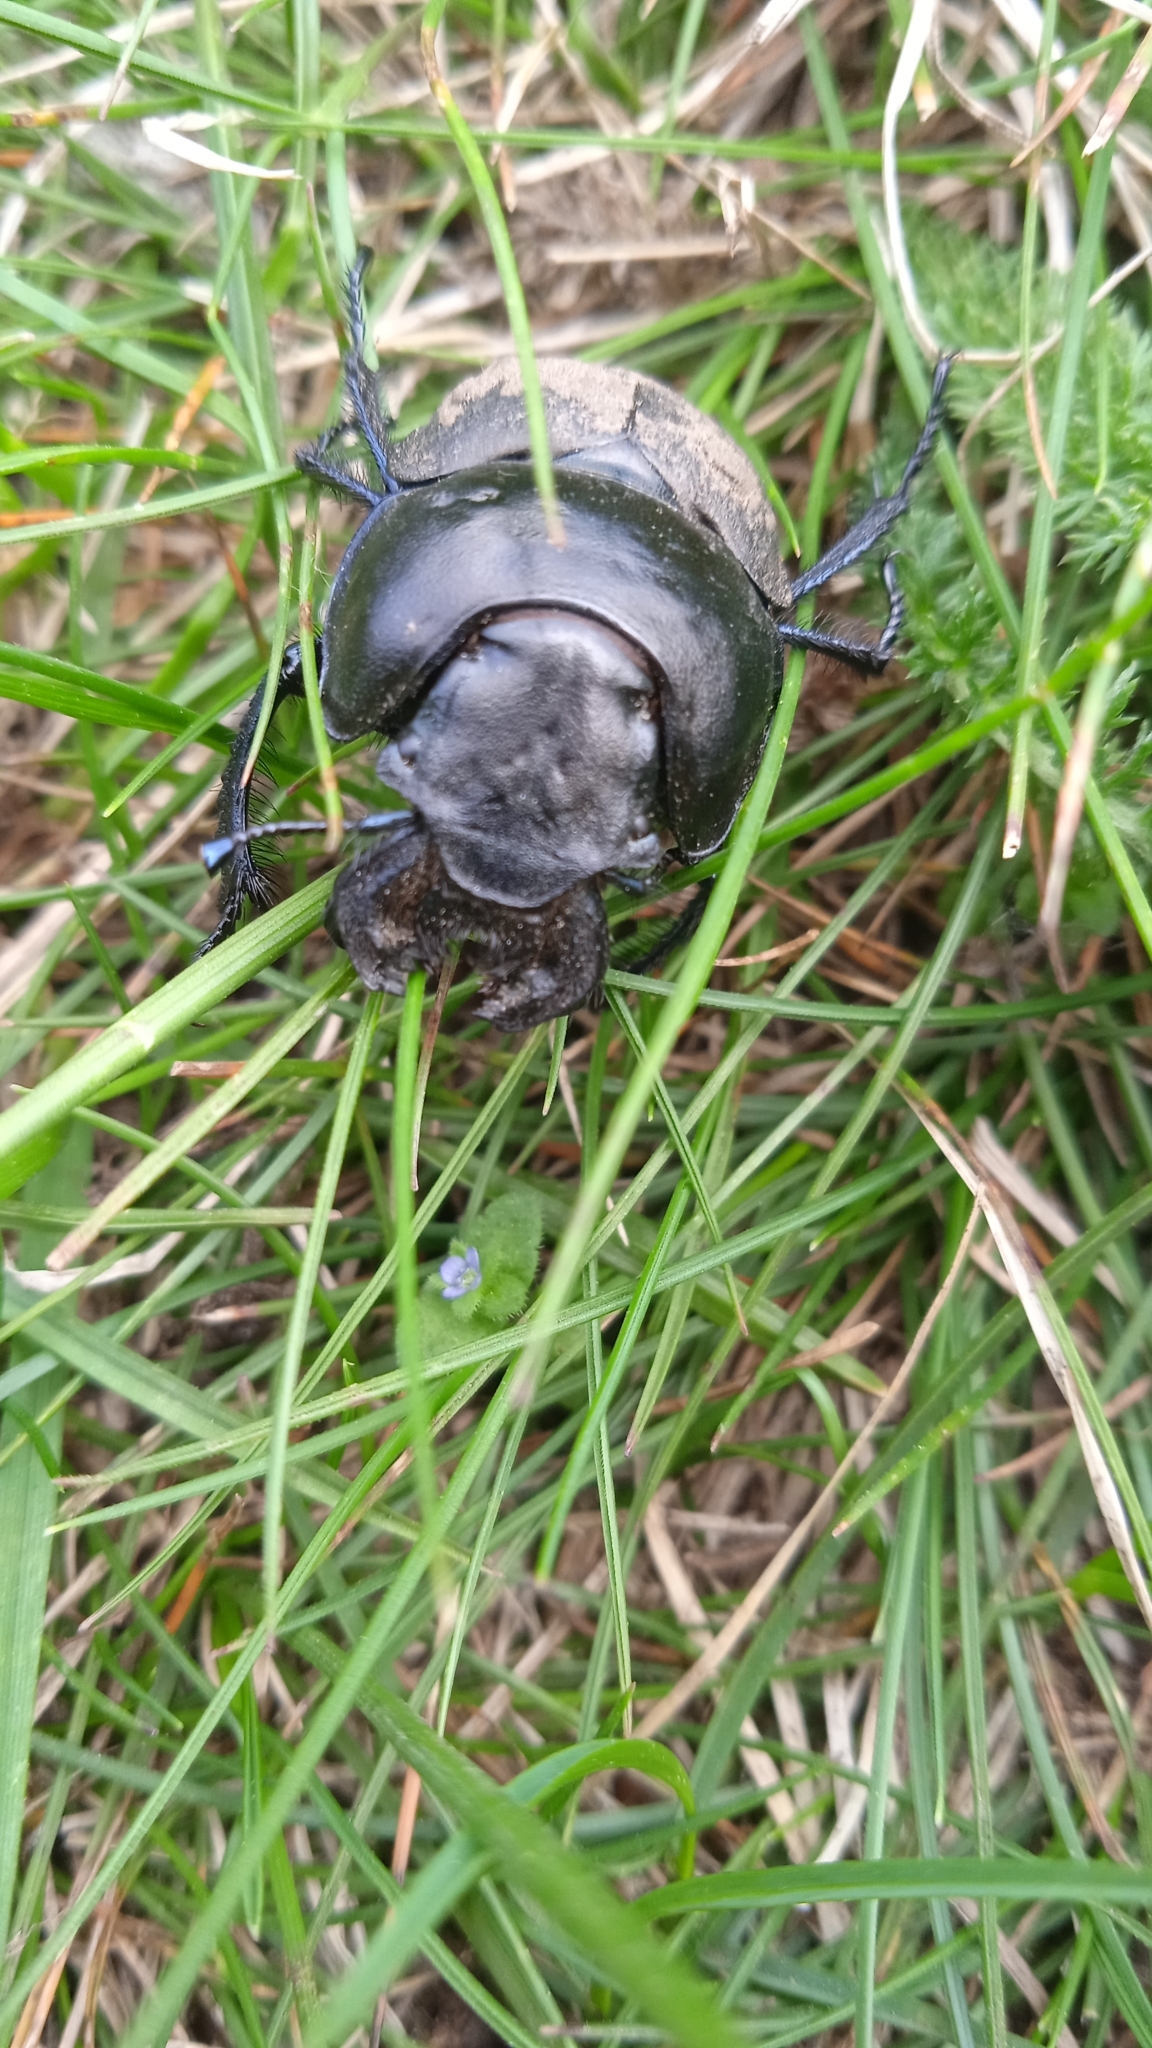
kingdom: Animalia
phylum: Arthropoda
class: Insecta
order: Coleoptera
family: Geotrupidae
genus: Lethrus
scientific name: Lethrus apterus
